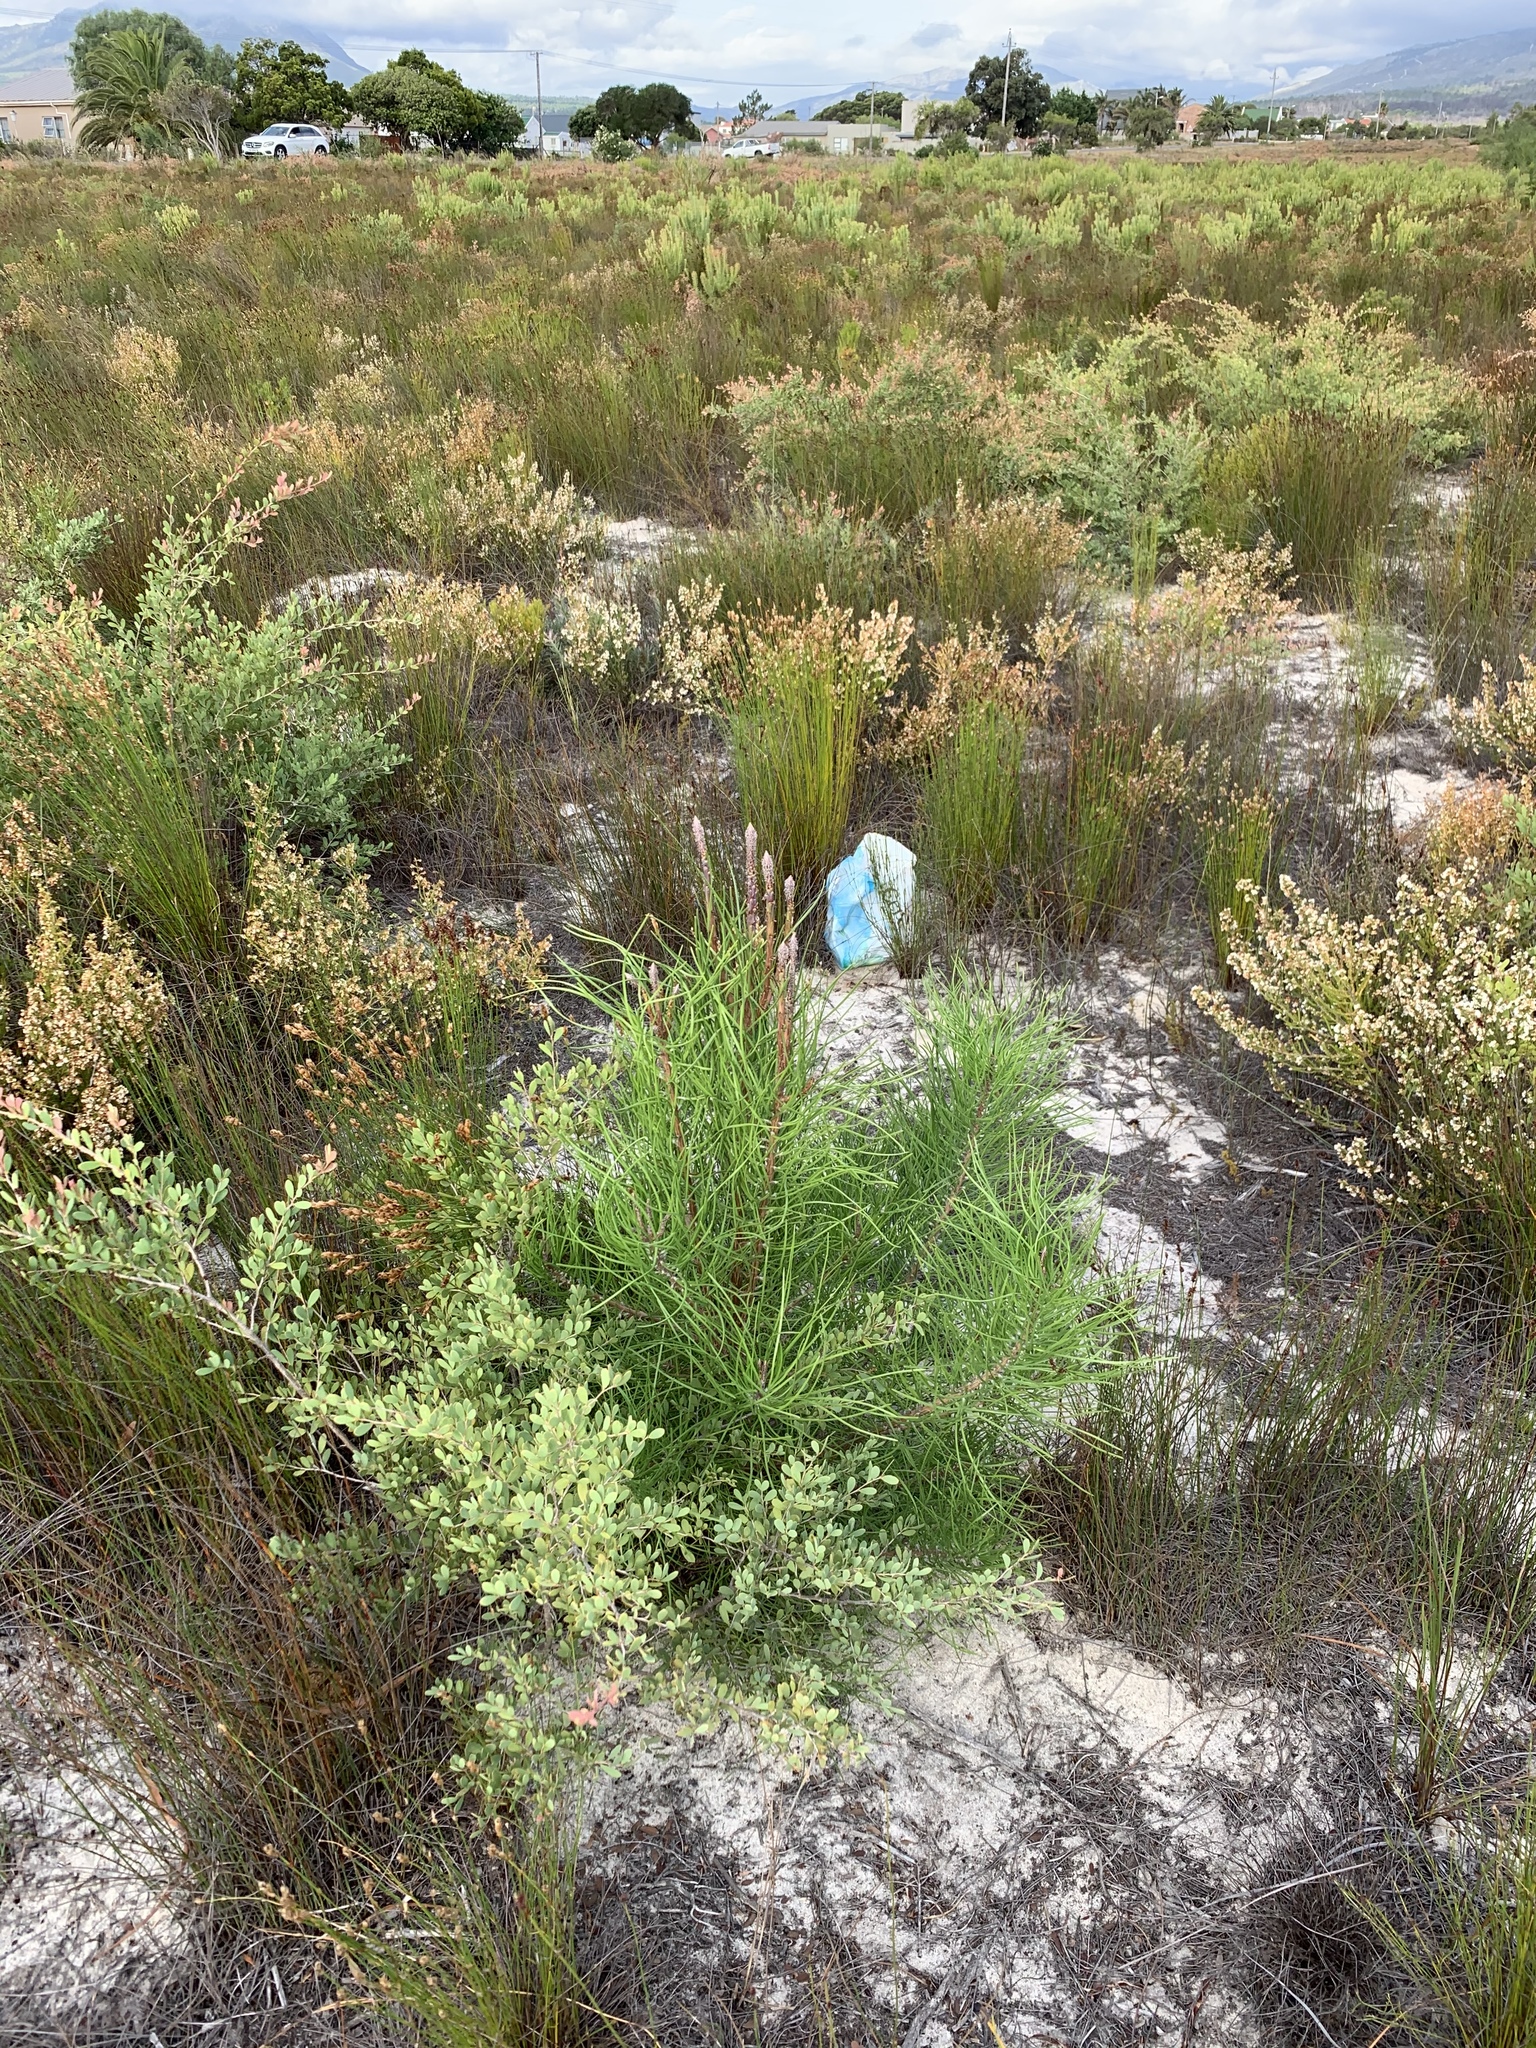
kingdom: Plantae
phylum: Tracheophyta
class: Pinopsida
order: Pinales
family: Pinaceae
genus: Pinus
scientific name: Pinus pinaster
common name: Maritime pine
